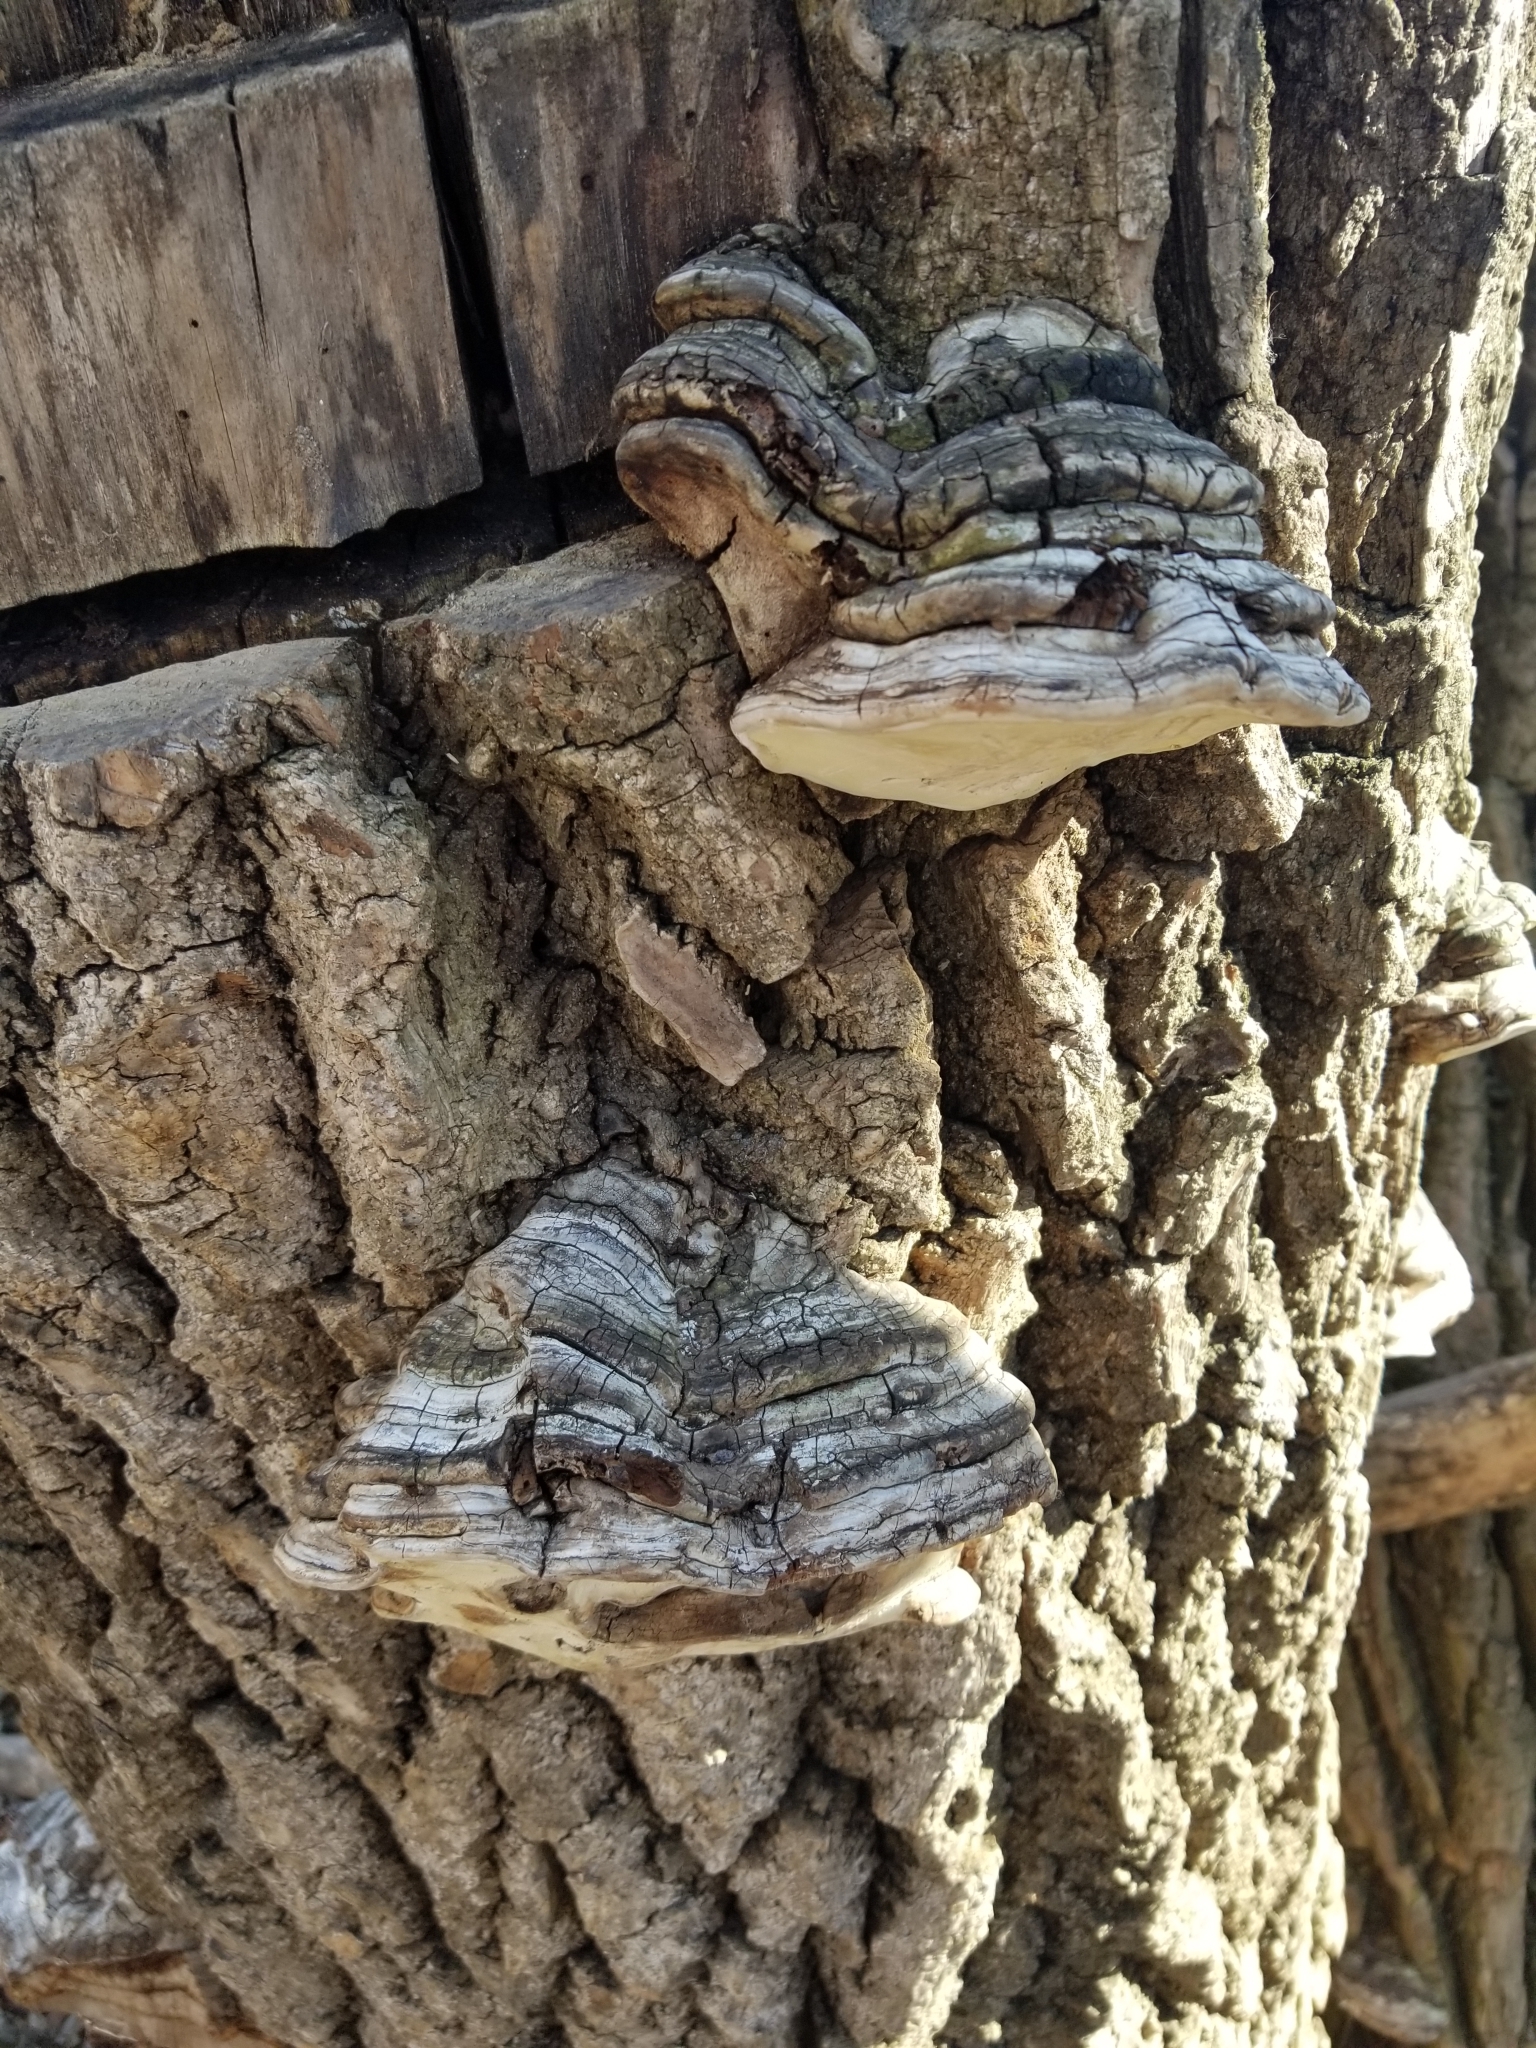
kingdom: Fungi
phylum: Basidiomycota
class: Agaricomycetes
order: Polyporales
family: Polyporaceae
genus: Fomes
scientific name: Fomes fomentarius
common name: Hoof fungus
